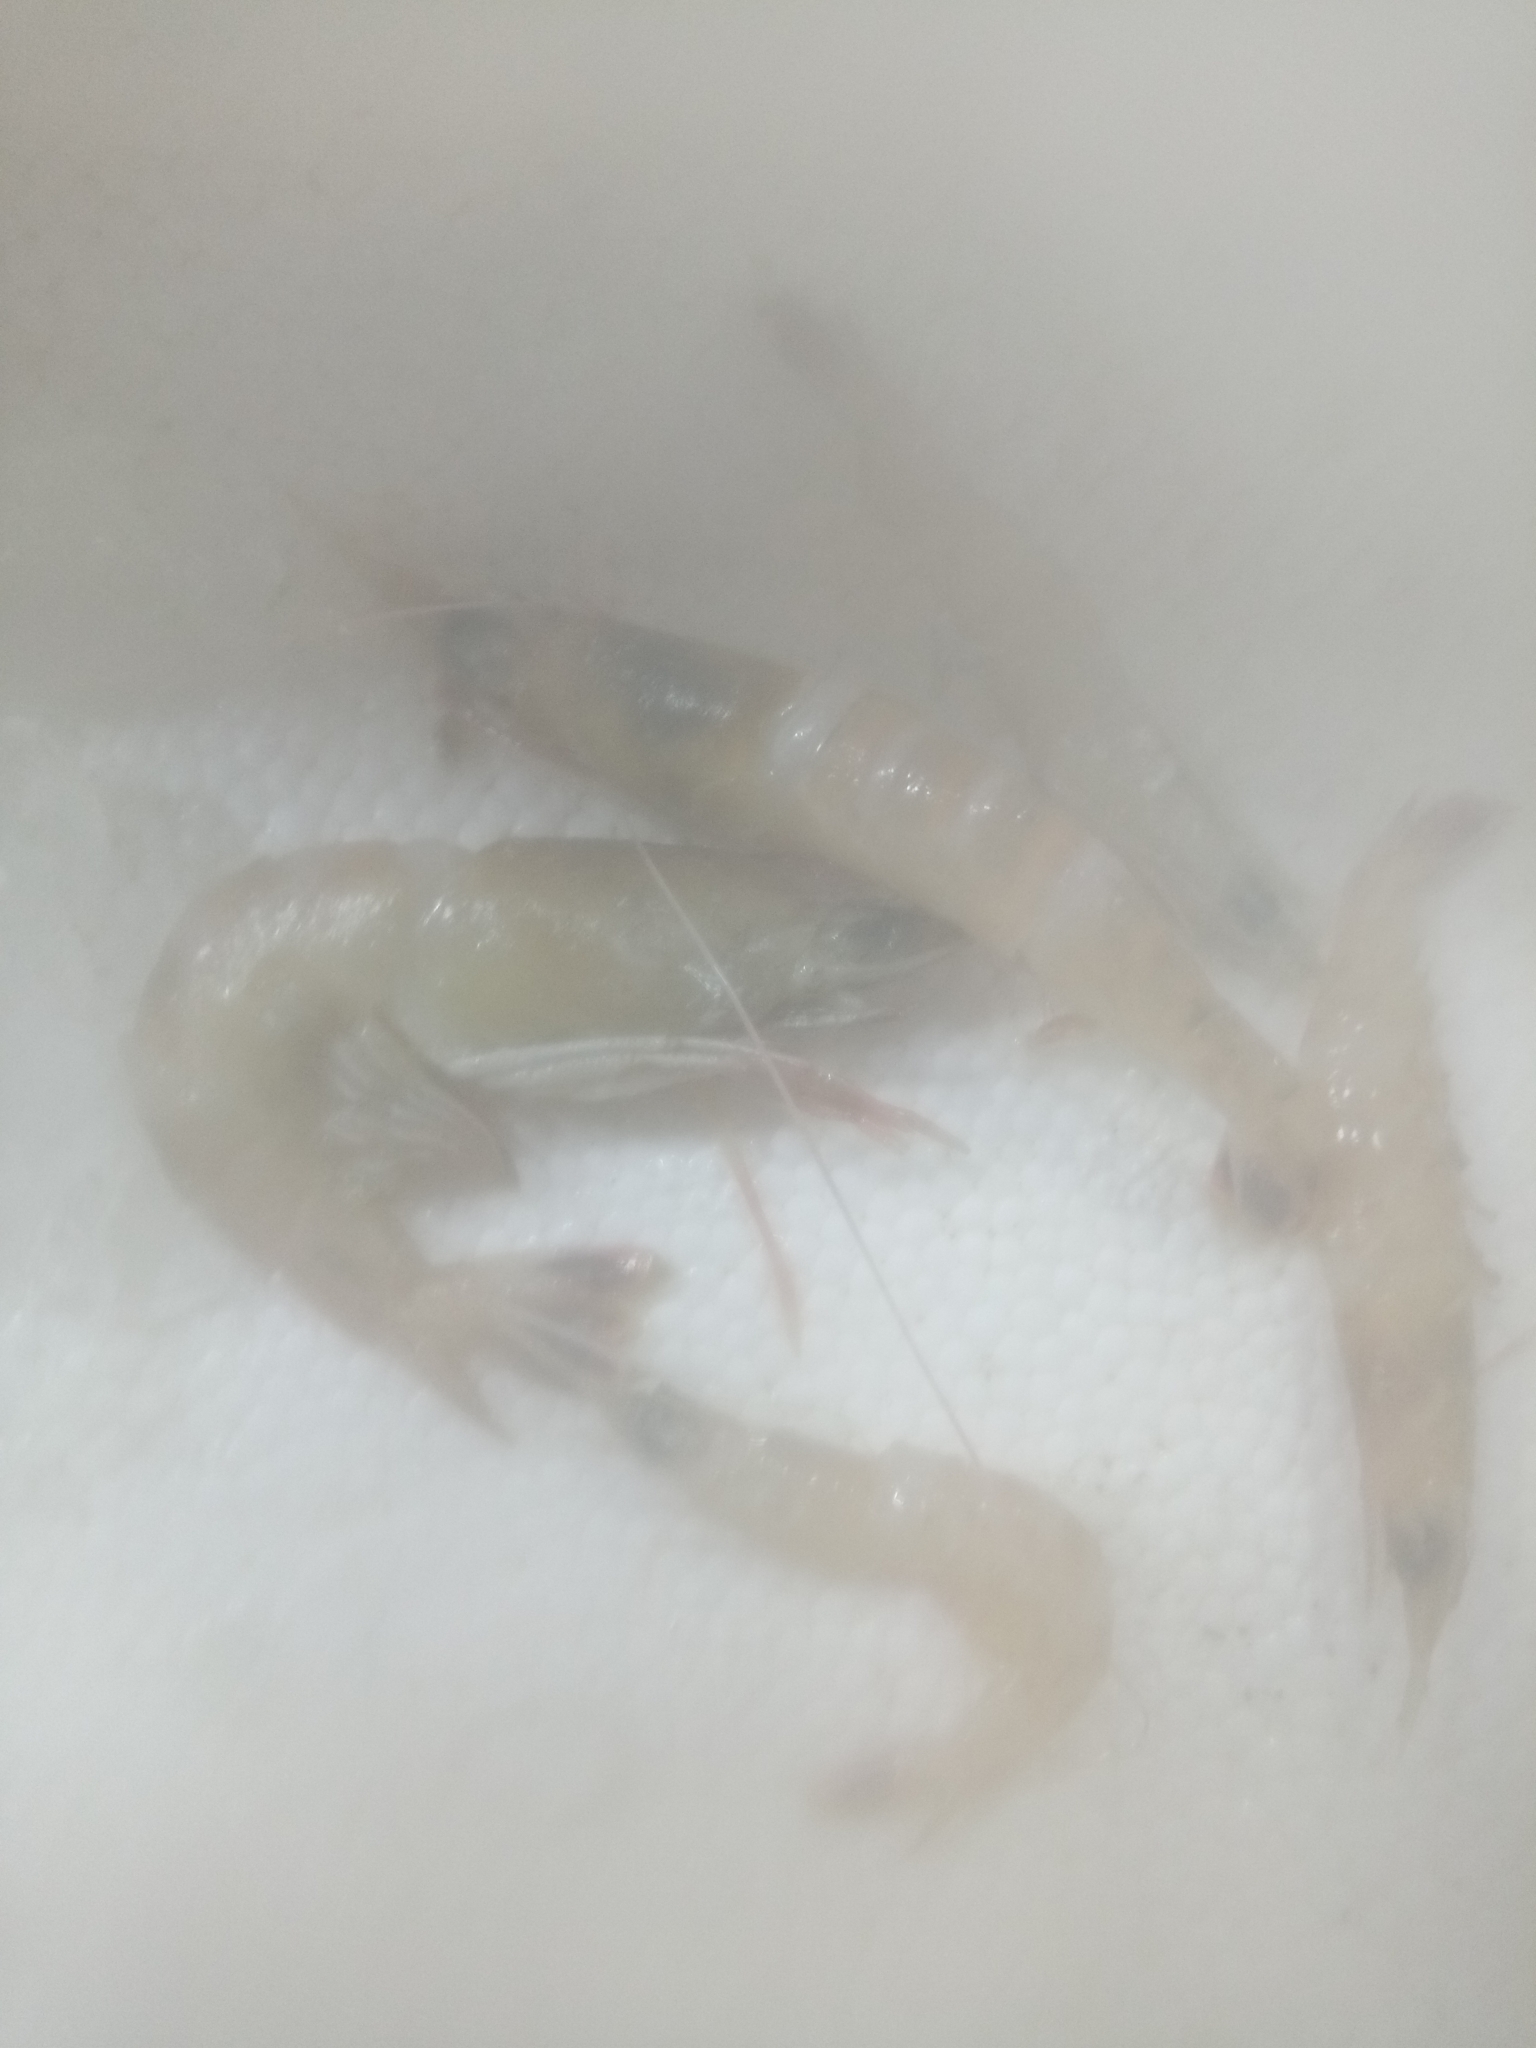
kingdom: Animalia
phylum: Arthropoda
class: Malacostraca
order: Decapoda
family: Penaeidae
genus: Parapenaeus
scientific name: Parapenaeus longirostris
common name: Deep-water rose shrimp
